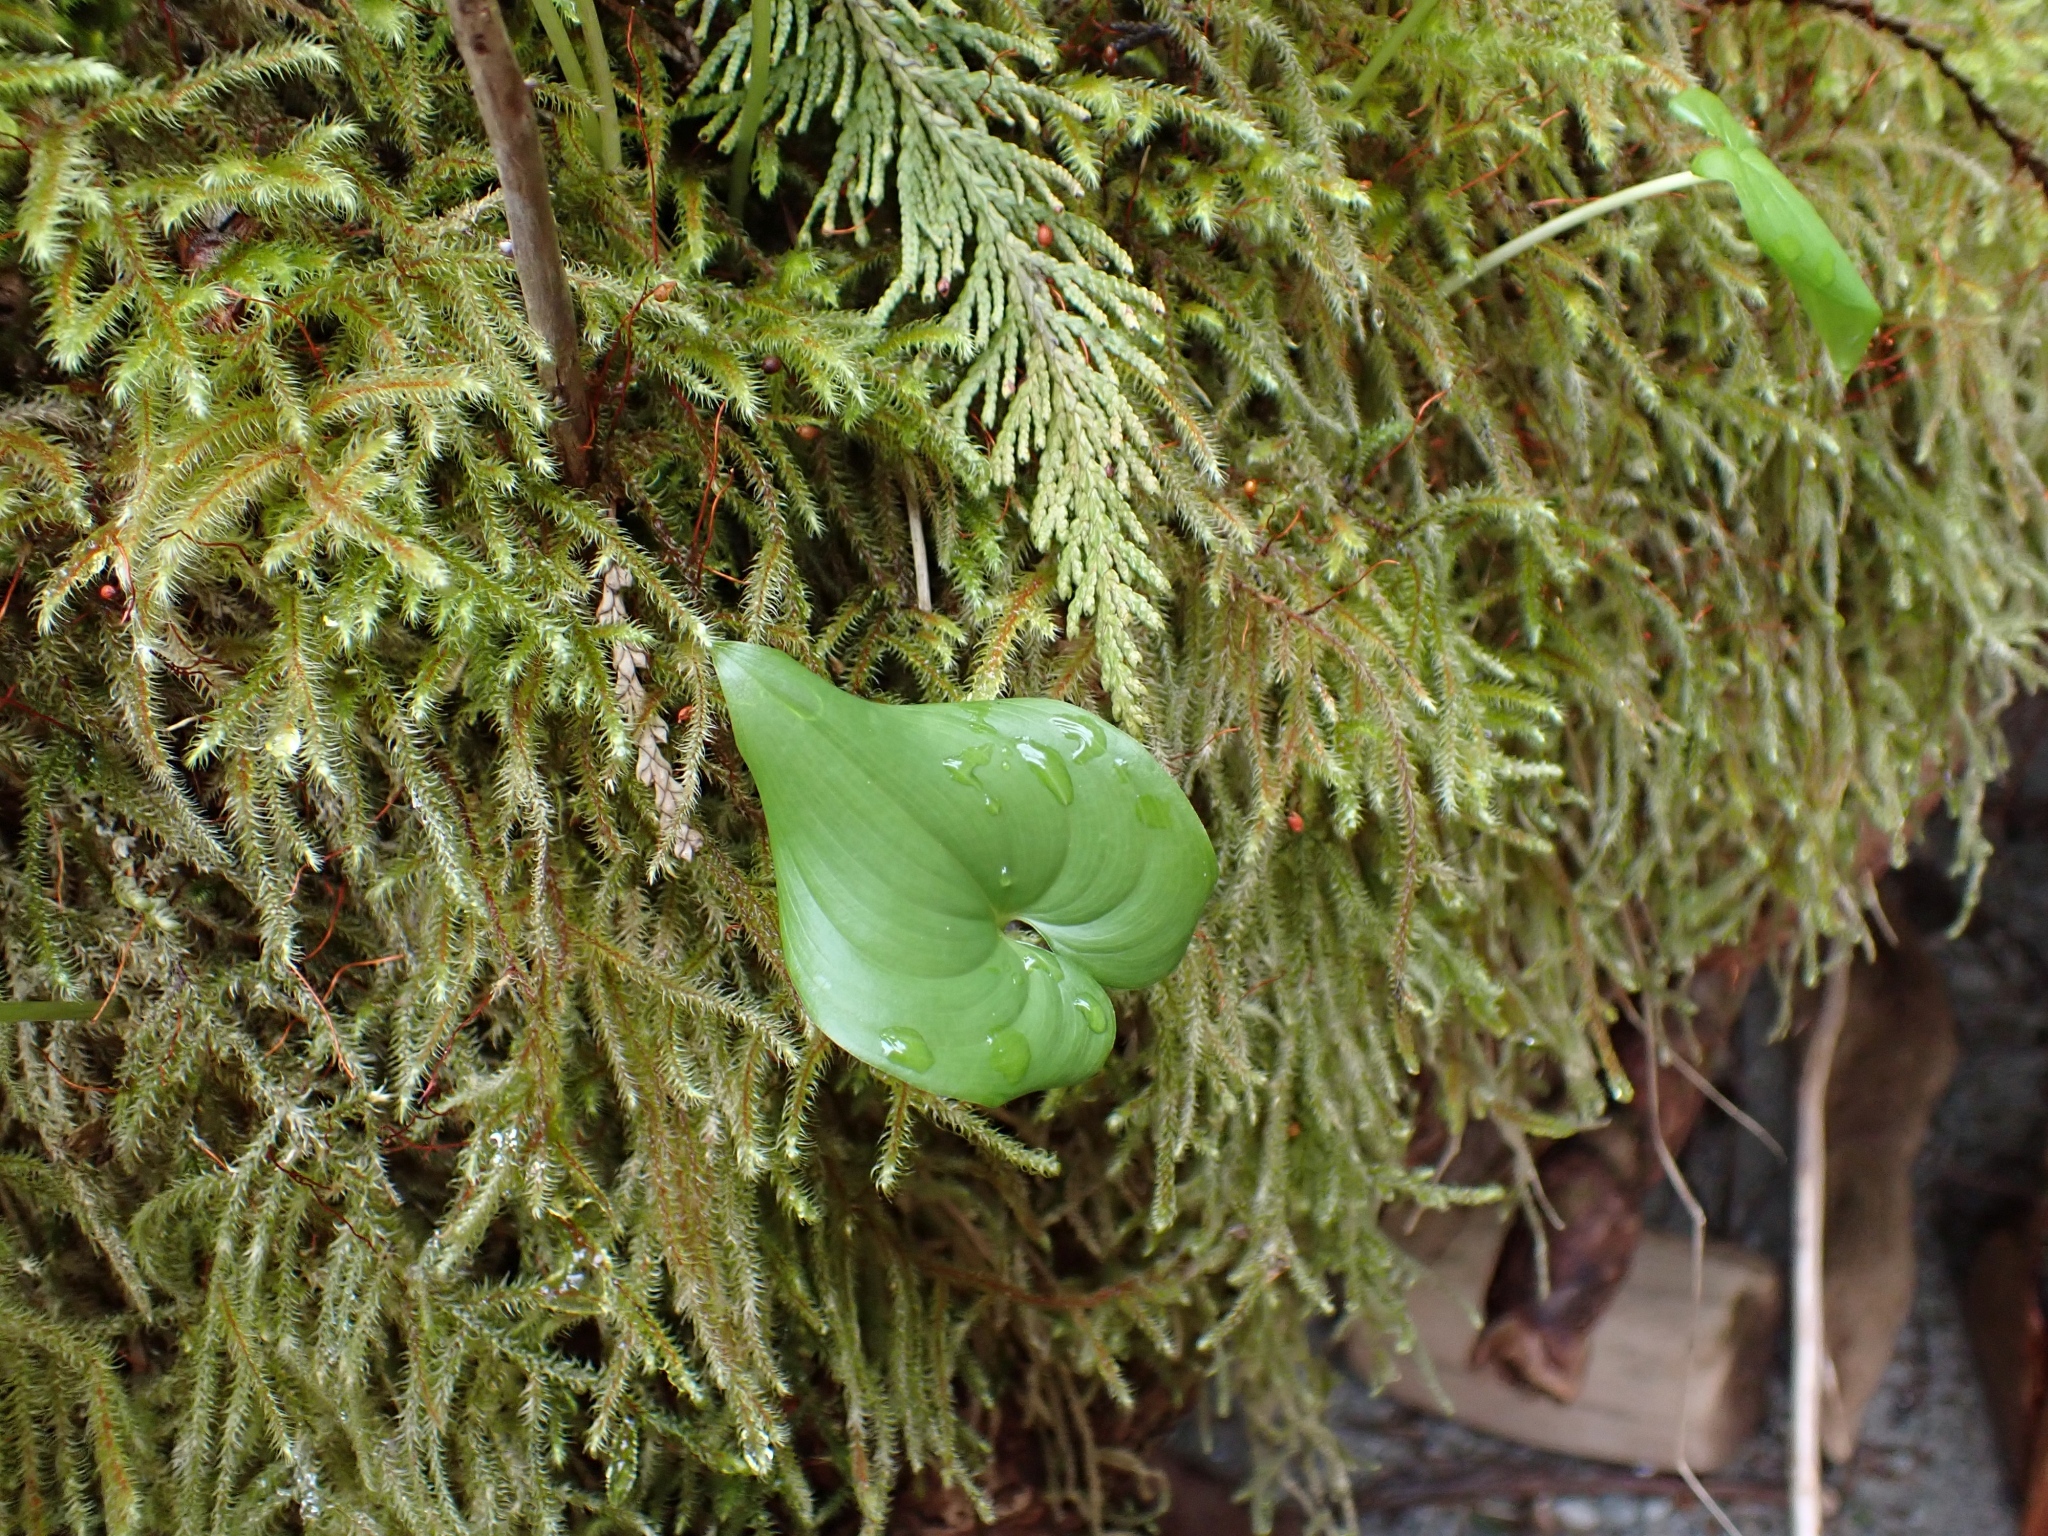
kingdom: Plantae
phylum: Tracheophyta
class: Liliopsida
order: Asparagales
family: Asparagaceae
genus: Maianthemum
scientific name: Maianthemum dilatatum
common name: False lily-of-the-valley
